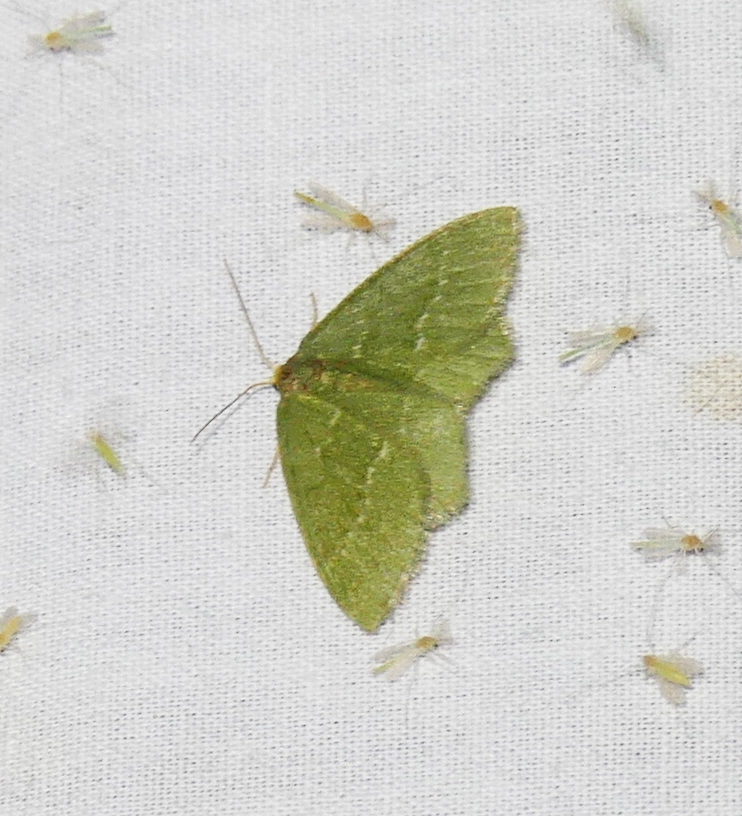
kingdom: Animalia
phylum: Arthropoda
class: Insecta
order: Lepidoptera
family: Geometridae
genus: Thalera
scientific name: Thalera pistasciaria
